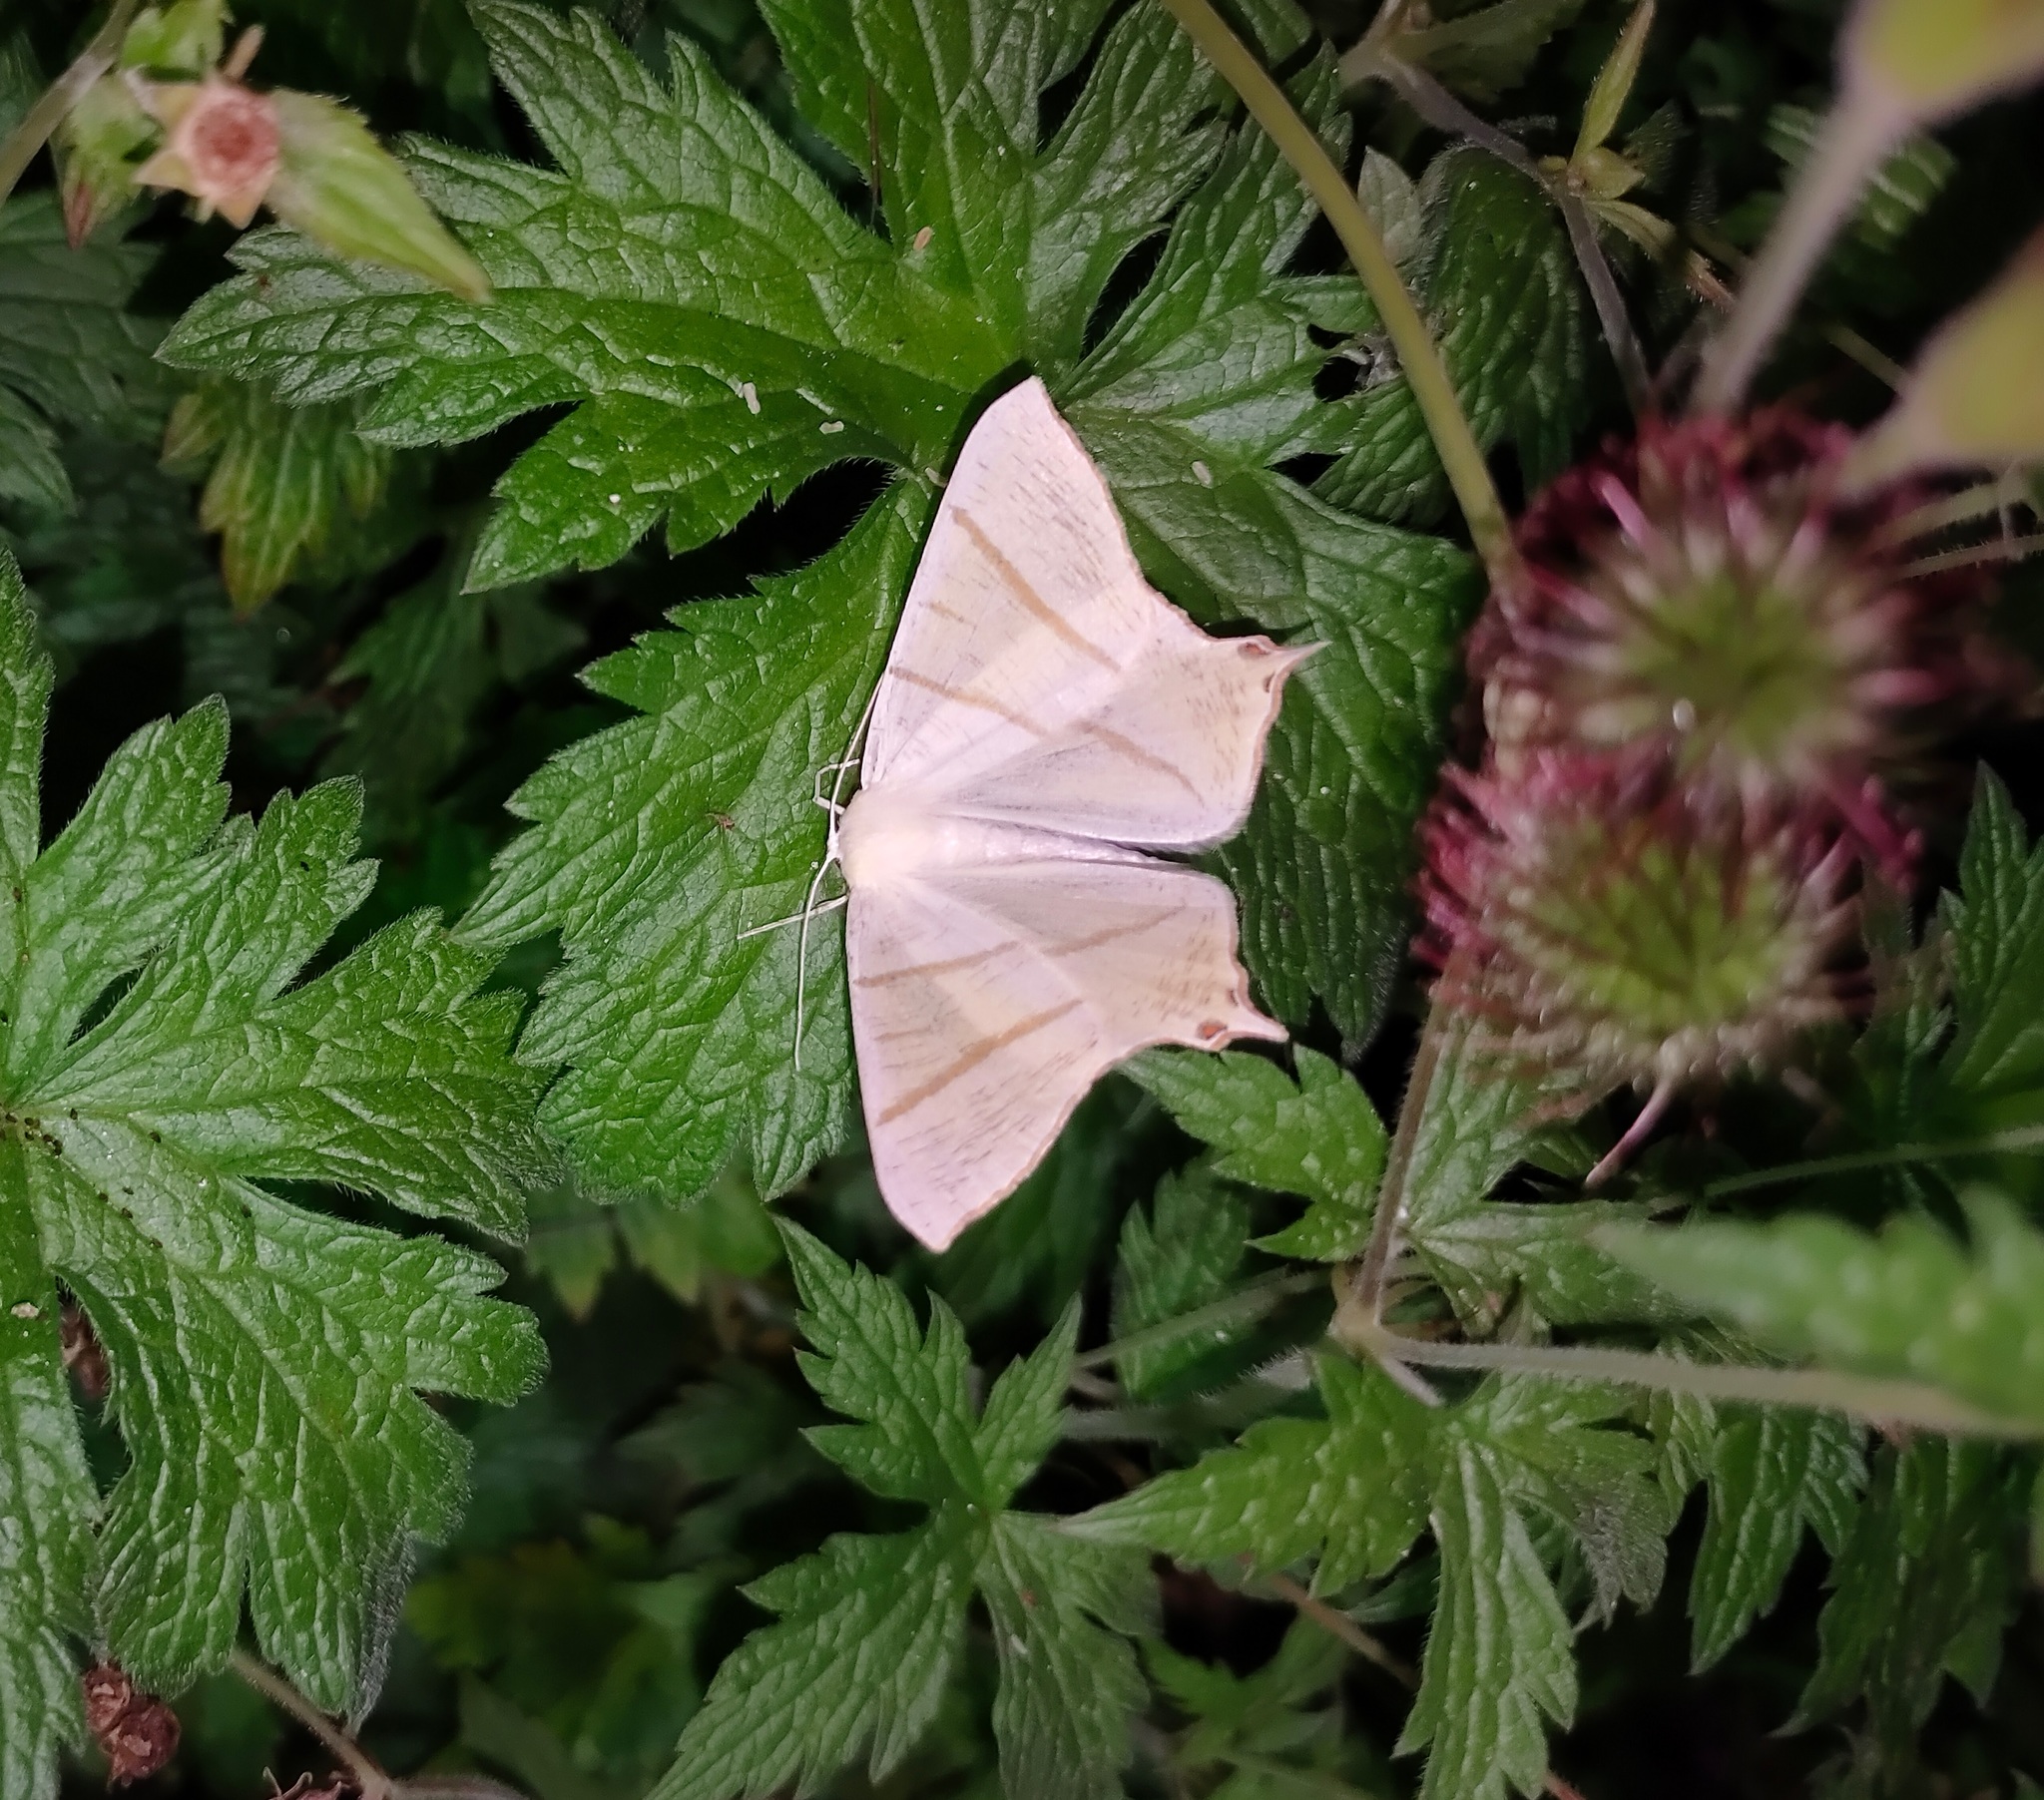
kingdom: Animalia
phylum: Arthropoda
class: Insecta
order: Lepidoptera
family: Geometridae
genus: Ourapteryx
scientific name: Ourapteryx sambucaria
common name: Swallow-tailed moth
